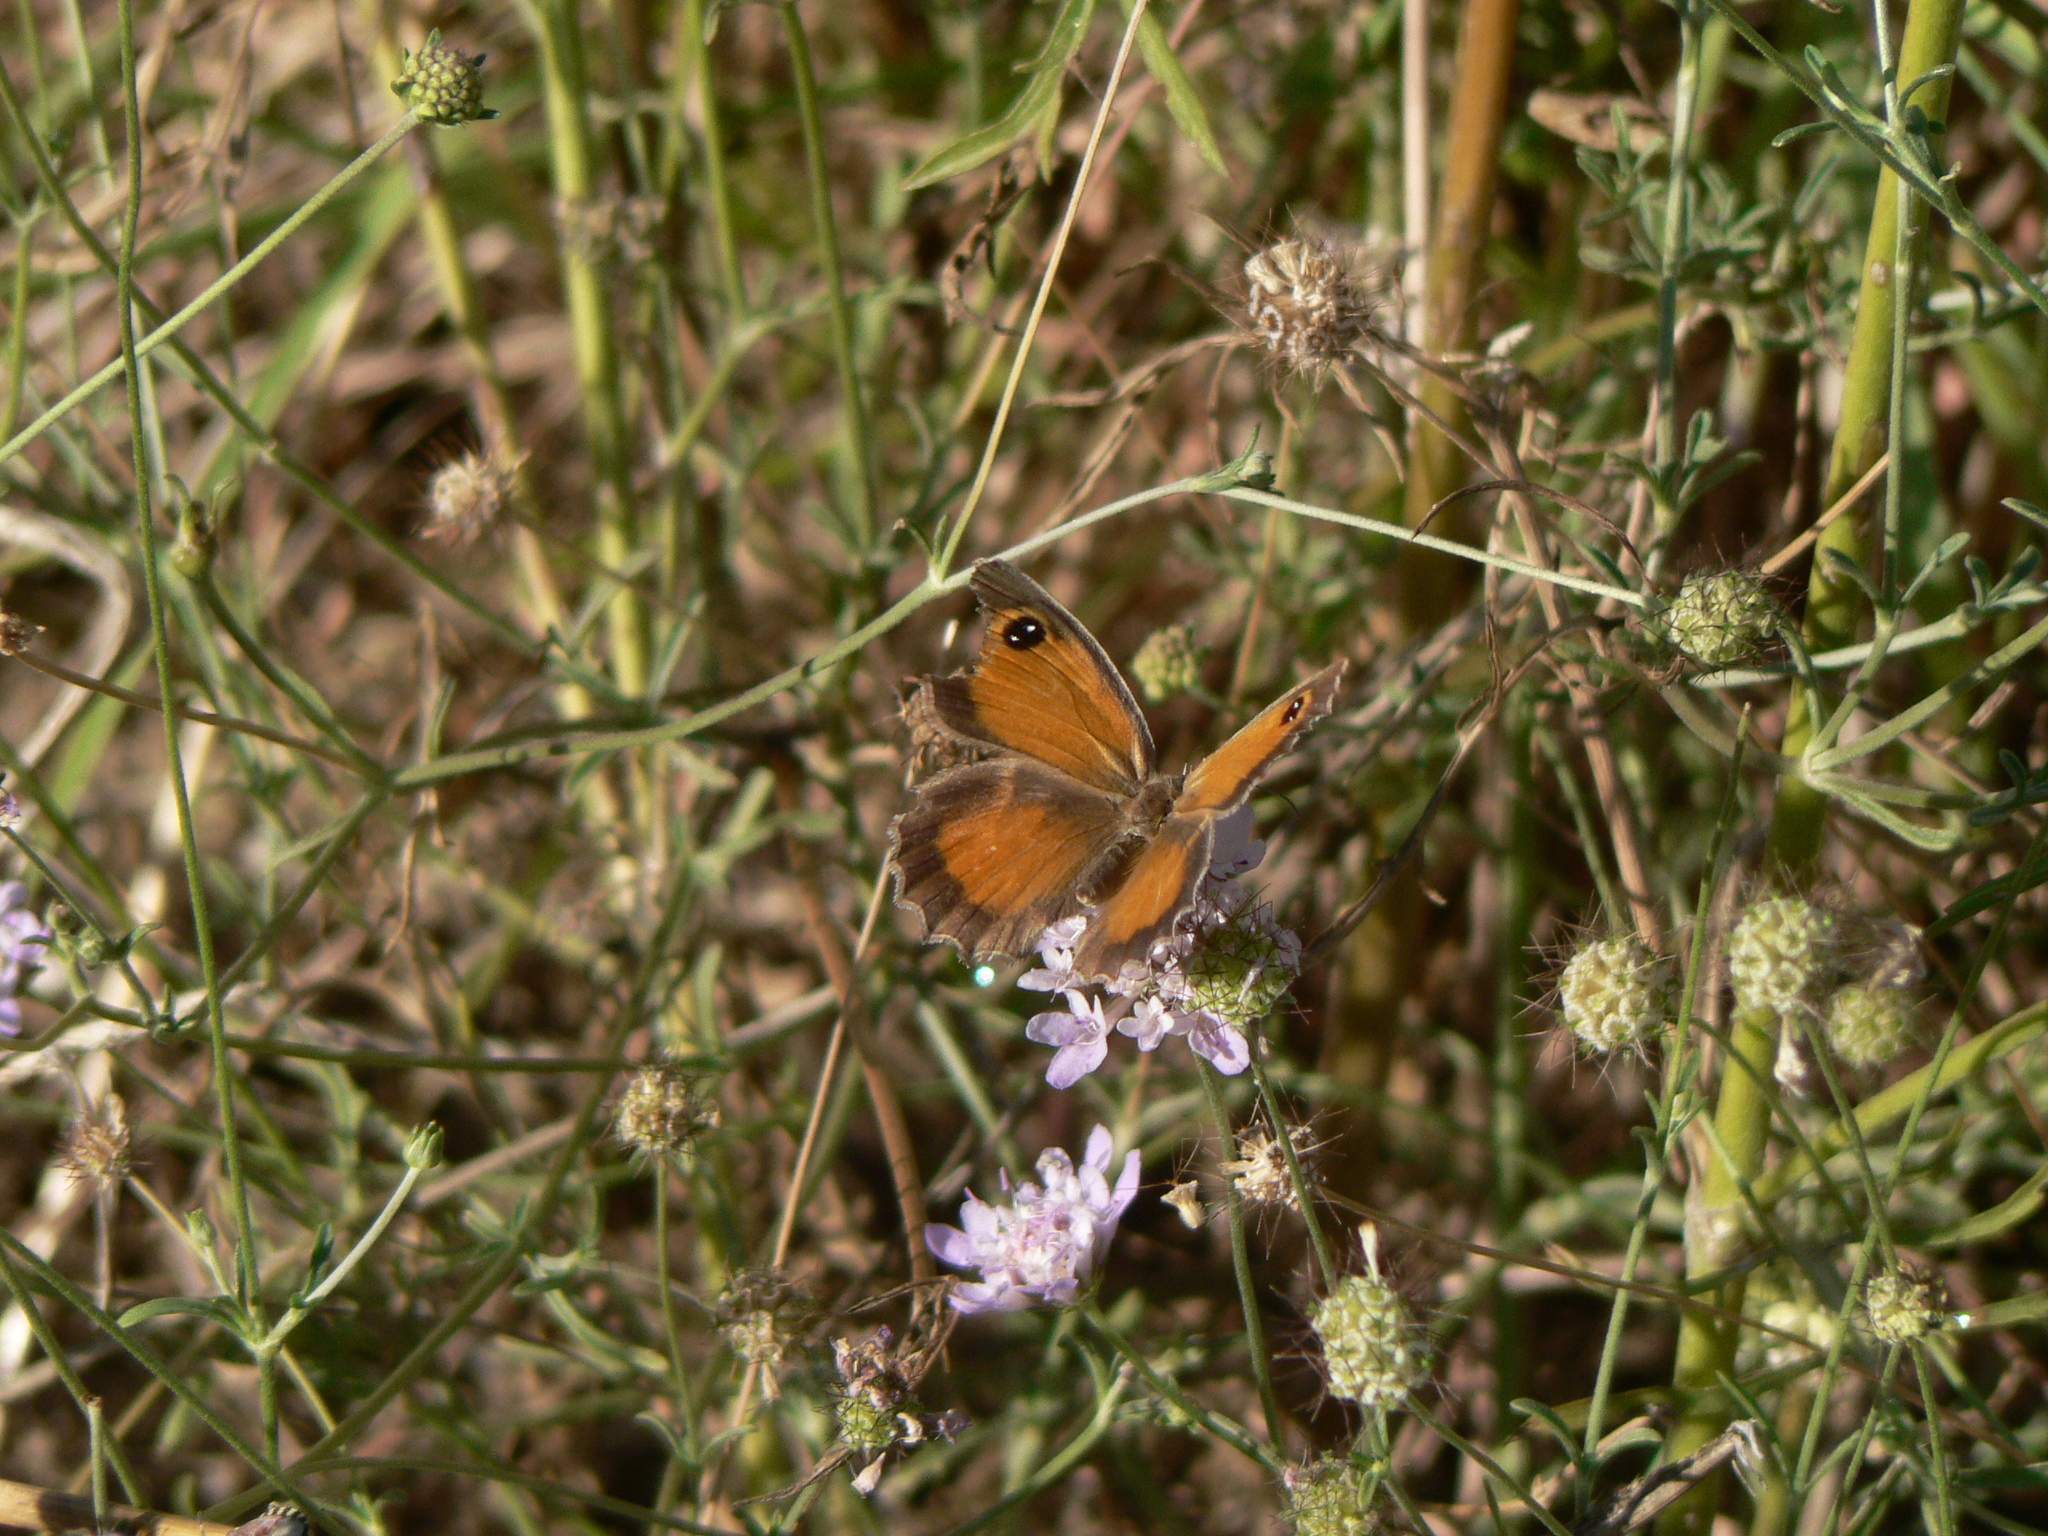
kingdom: Animalia
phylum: Arthropoda
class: Insecta
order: Lepidoptera
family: Nymphalidae
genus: Pyronia
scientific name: Pyronia cecilia
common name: Southern gatekeeper
